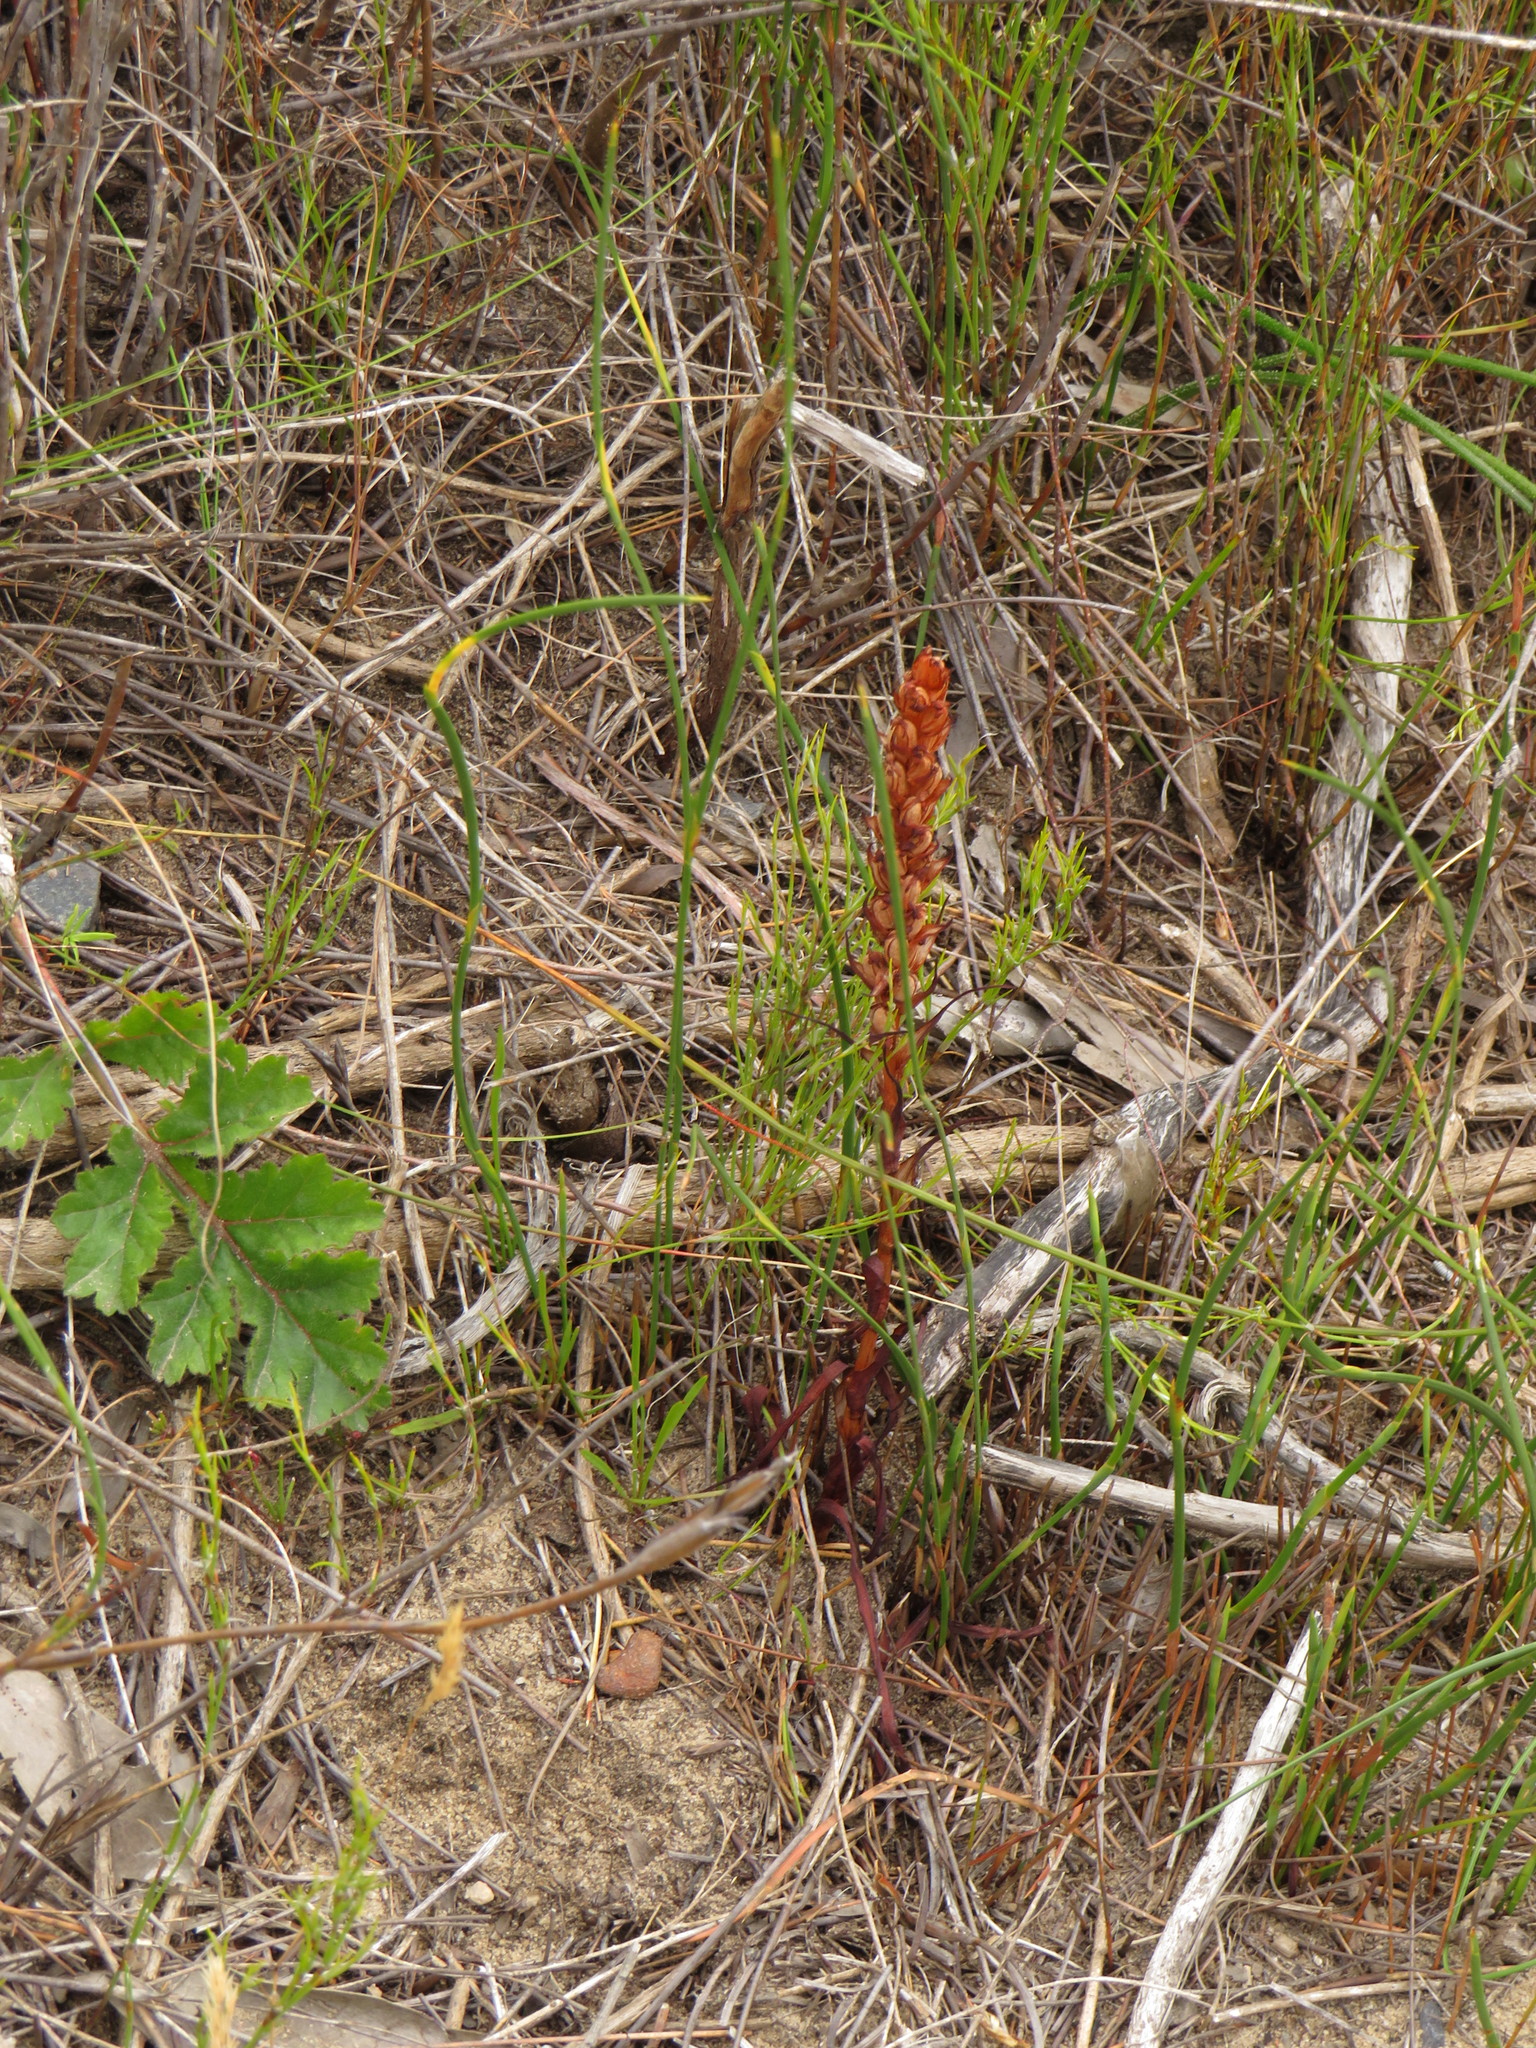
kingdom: Plantae
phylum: Tracheophyta
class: Liliopsida
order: Asparagales
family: Orchidaceae
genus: Disa
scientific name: Disa bracteata
